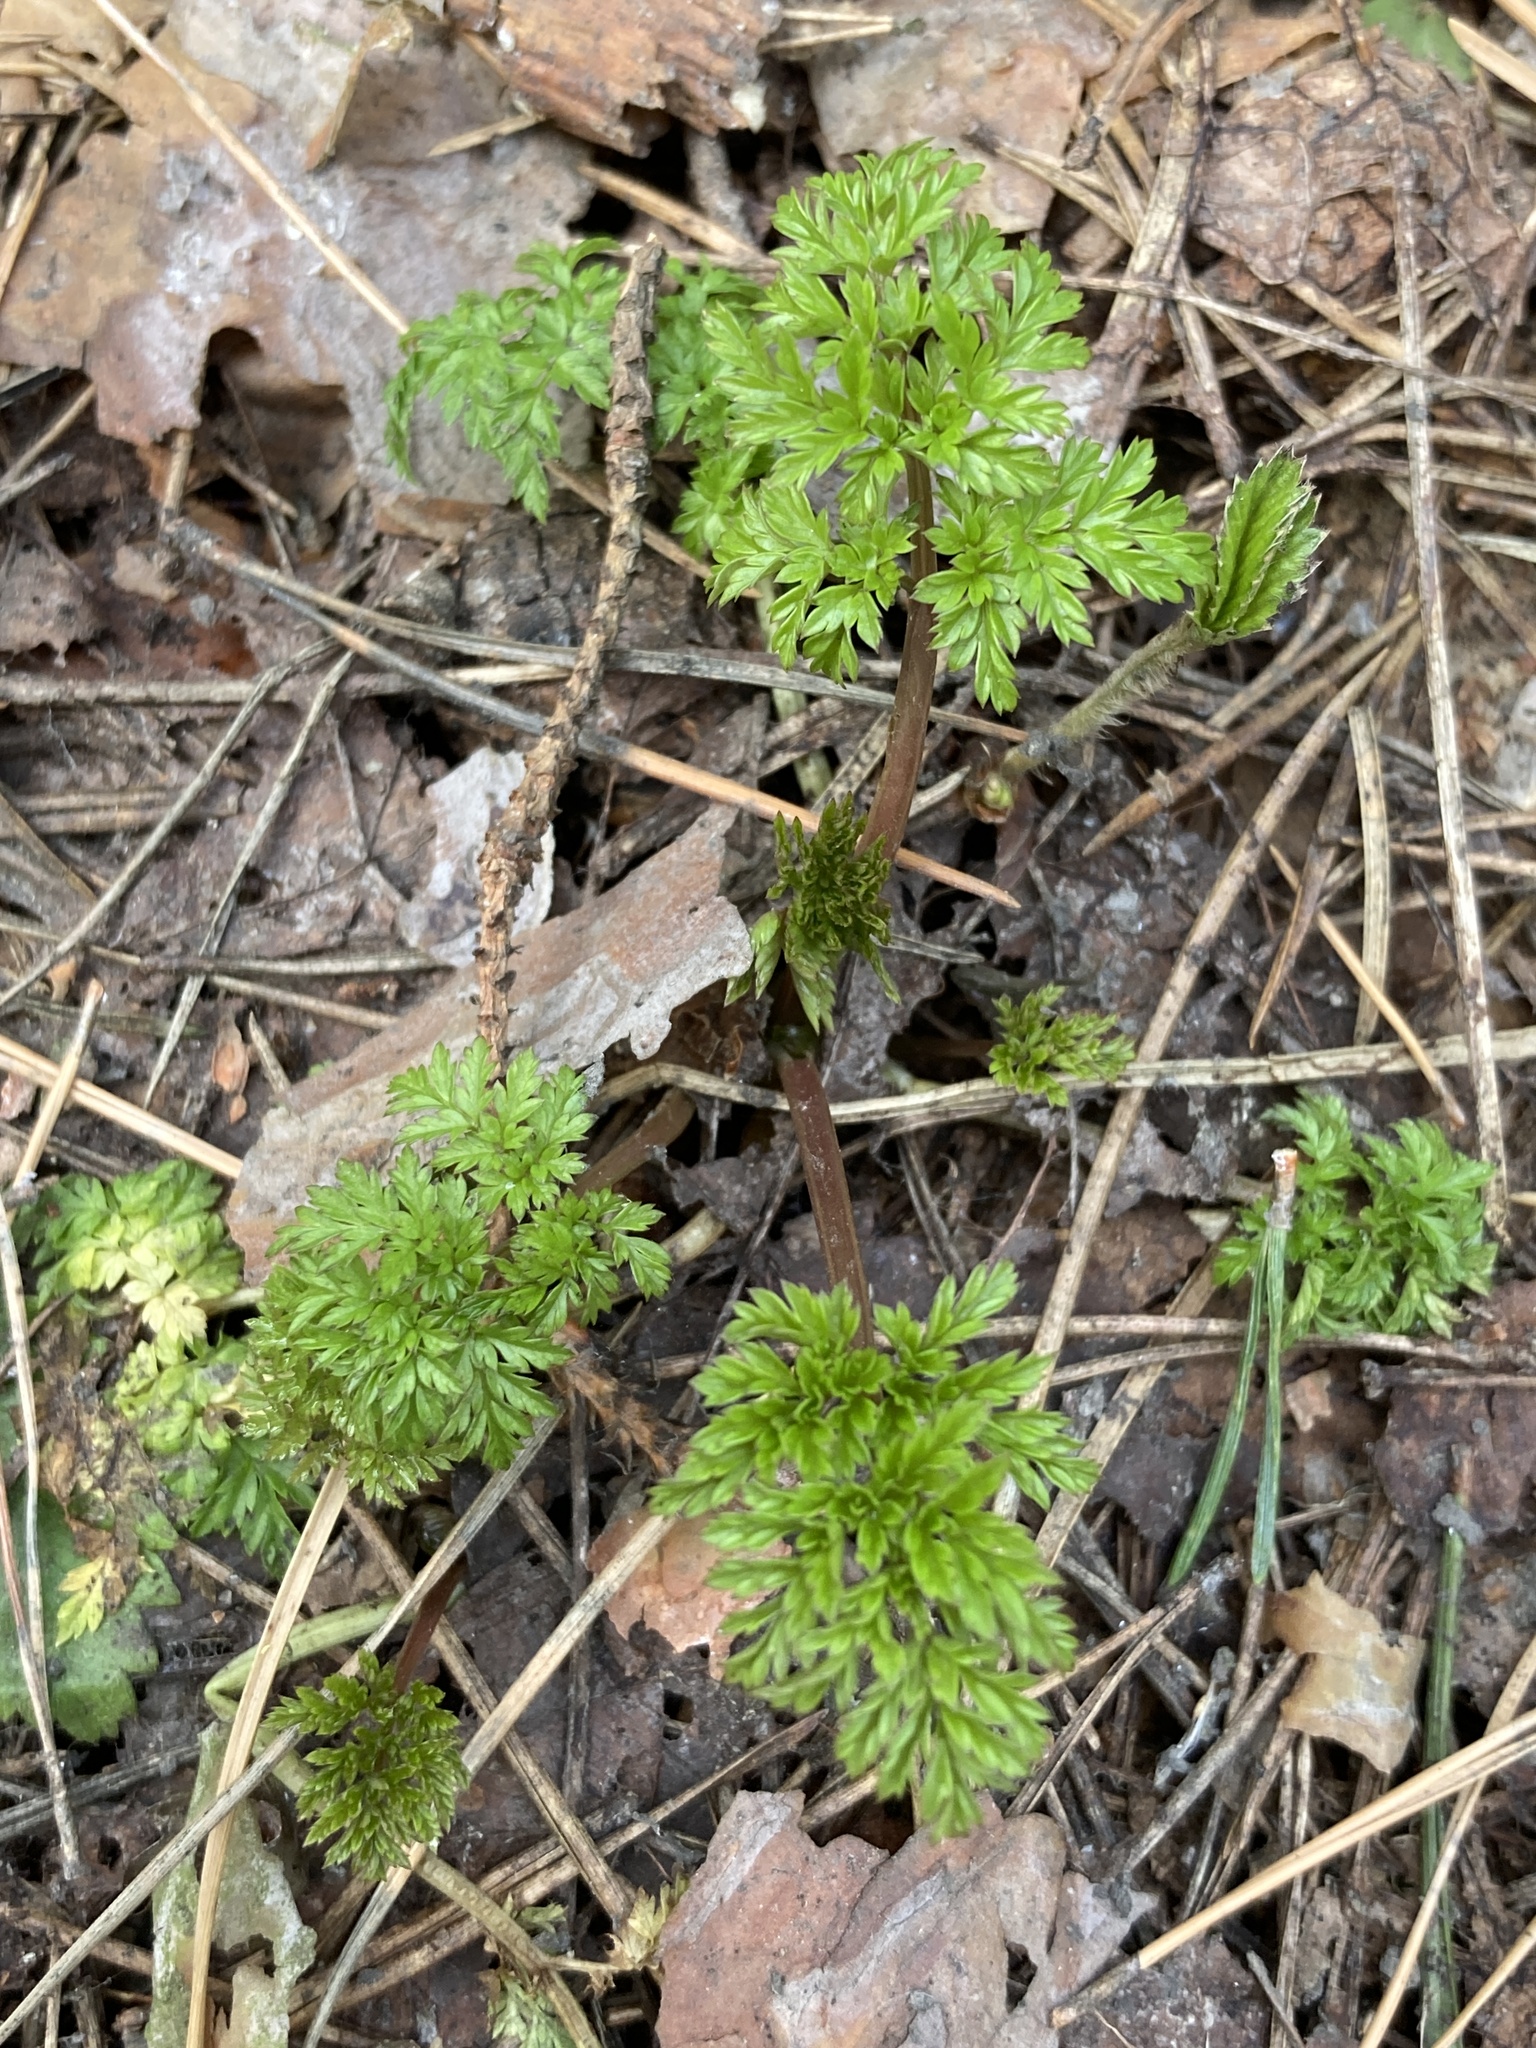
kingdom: Plantae
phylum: Tracheophyta
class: Magnoliopsida
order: Apiales
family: Apiaceae
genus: Anthriscus
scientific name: Anthriscus sylvestris
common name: Cow parsley
